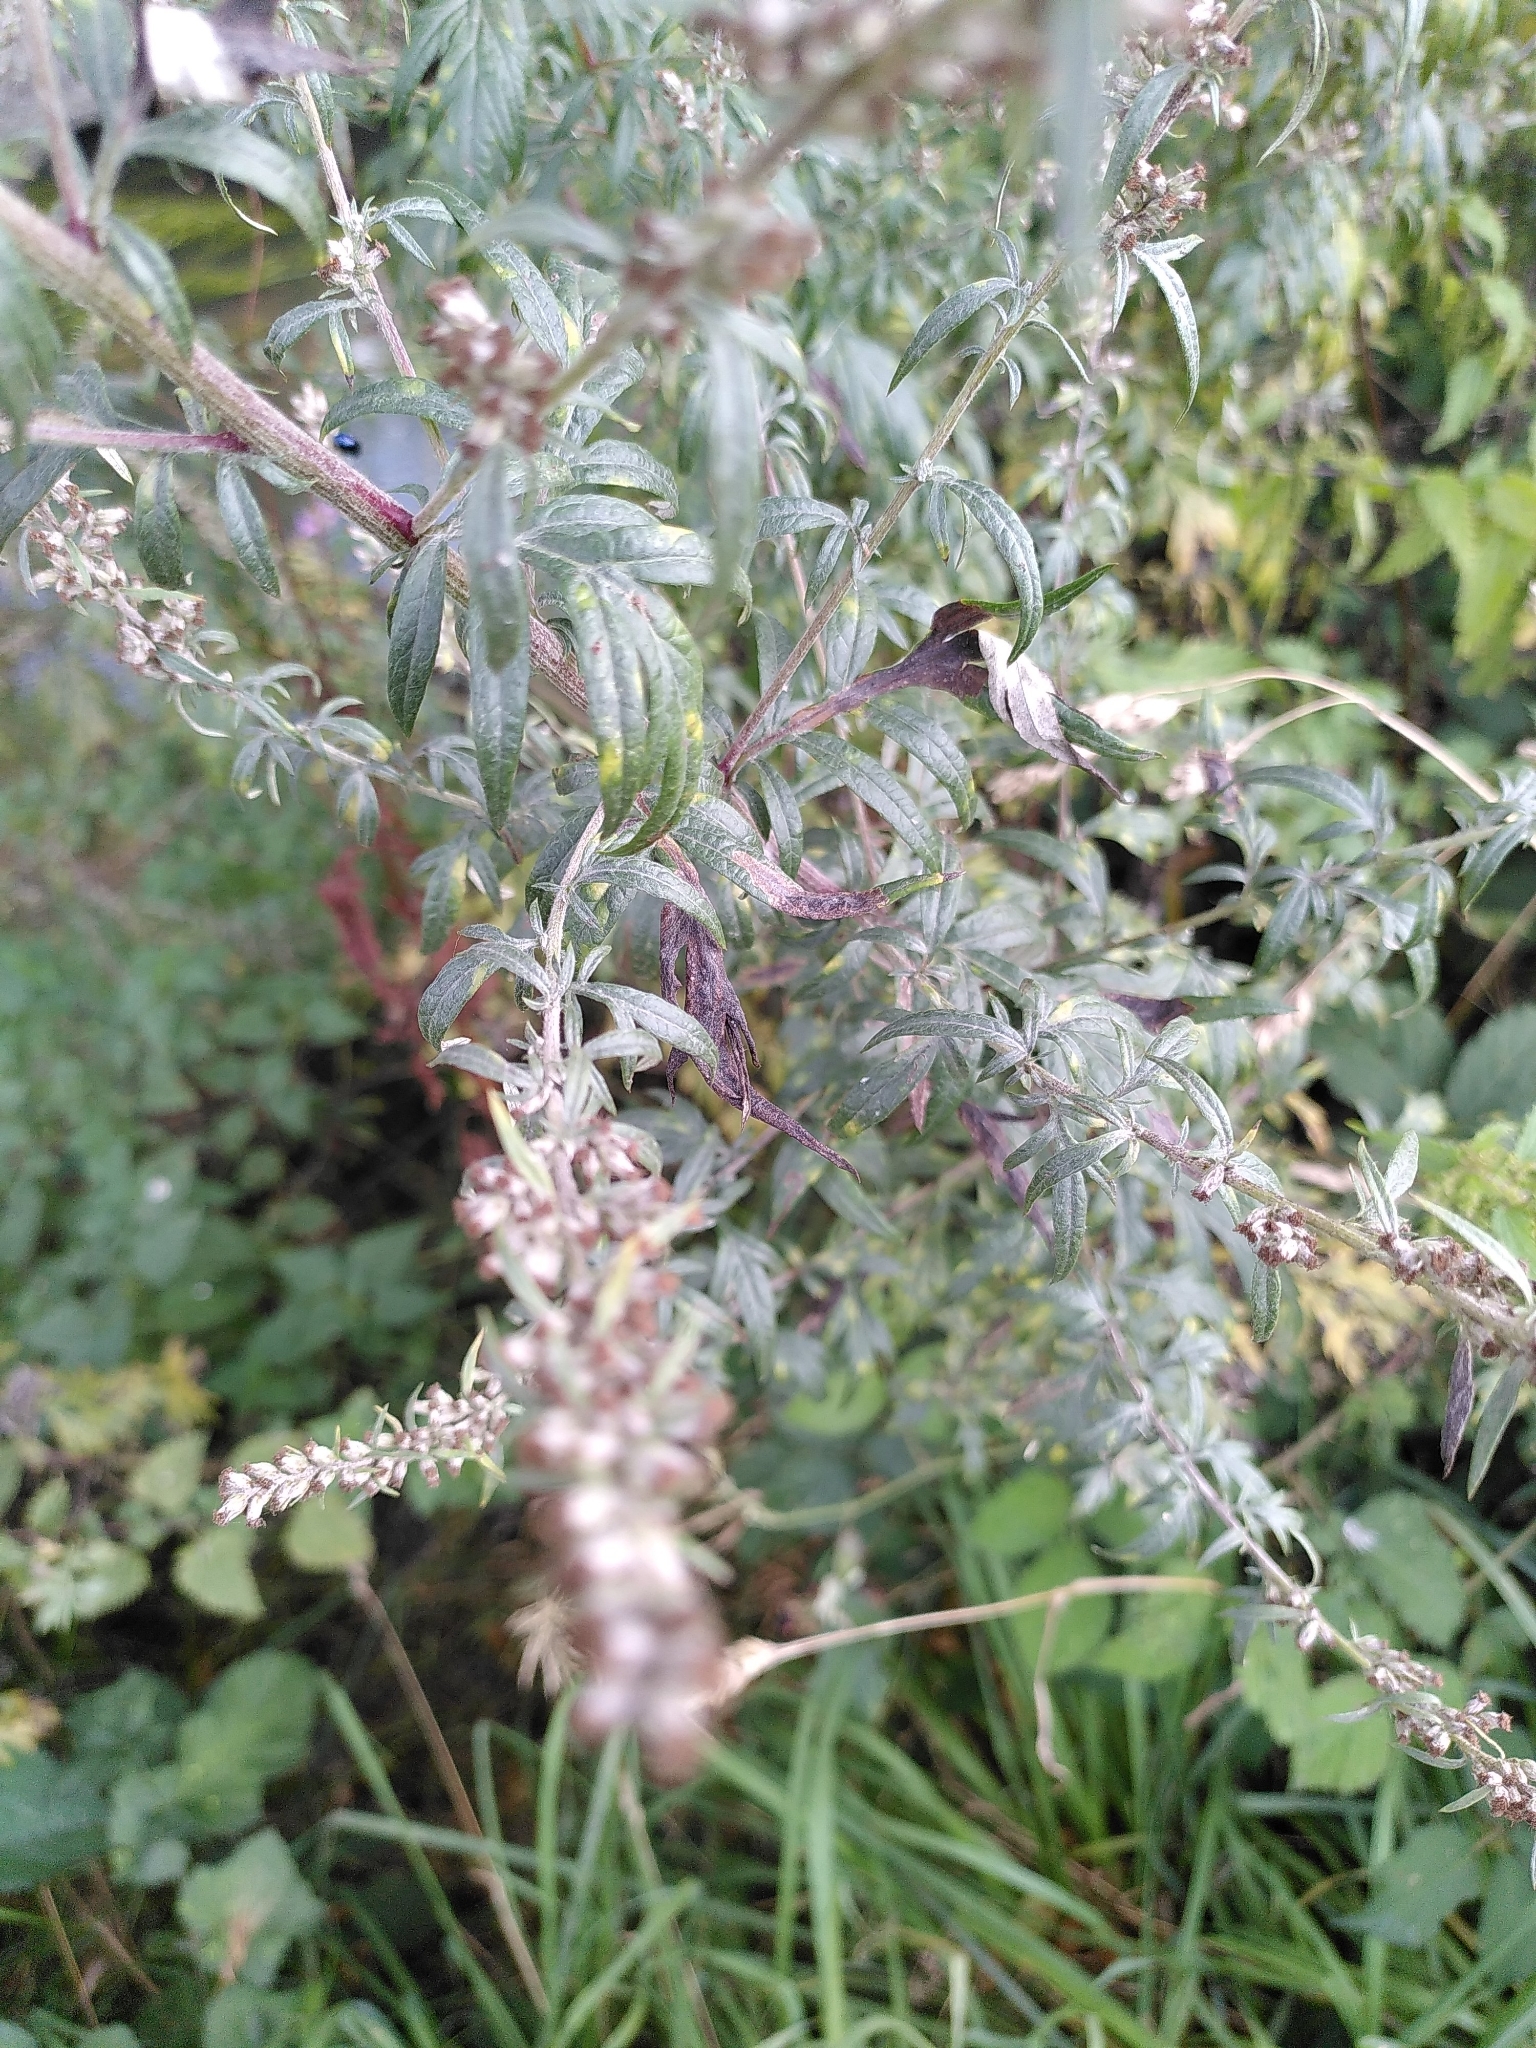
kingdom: Plantae
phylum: Tracheophyta
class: Magnoliopsida
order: Asterales
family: Asteraceae
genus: Artemisia
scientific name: Artemisia vulgaris
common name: Mugwort
